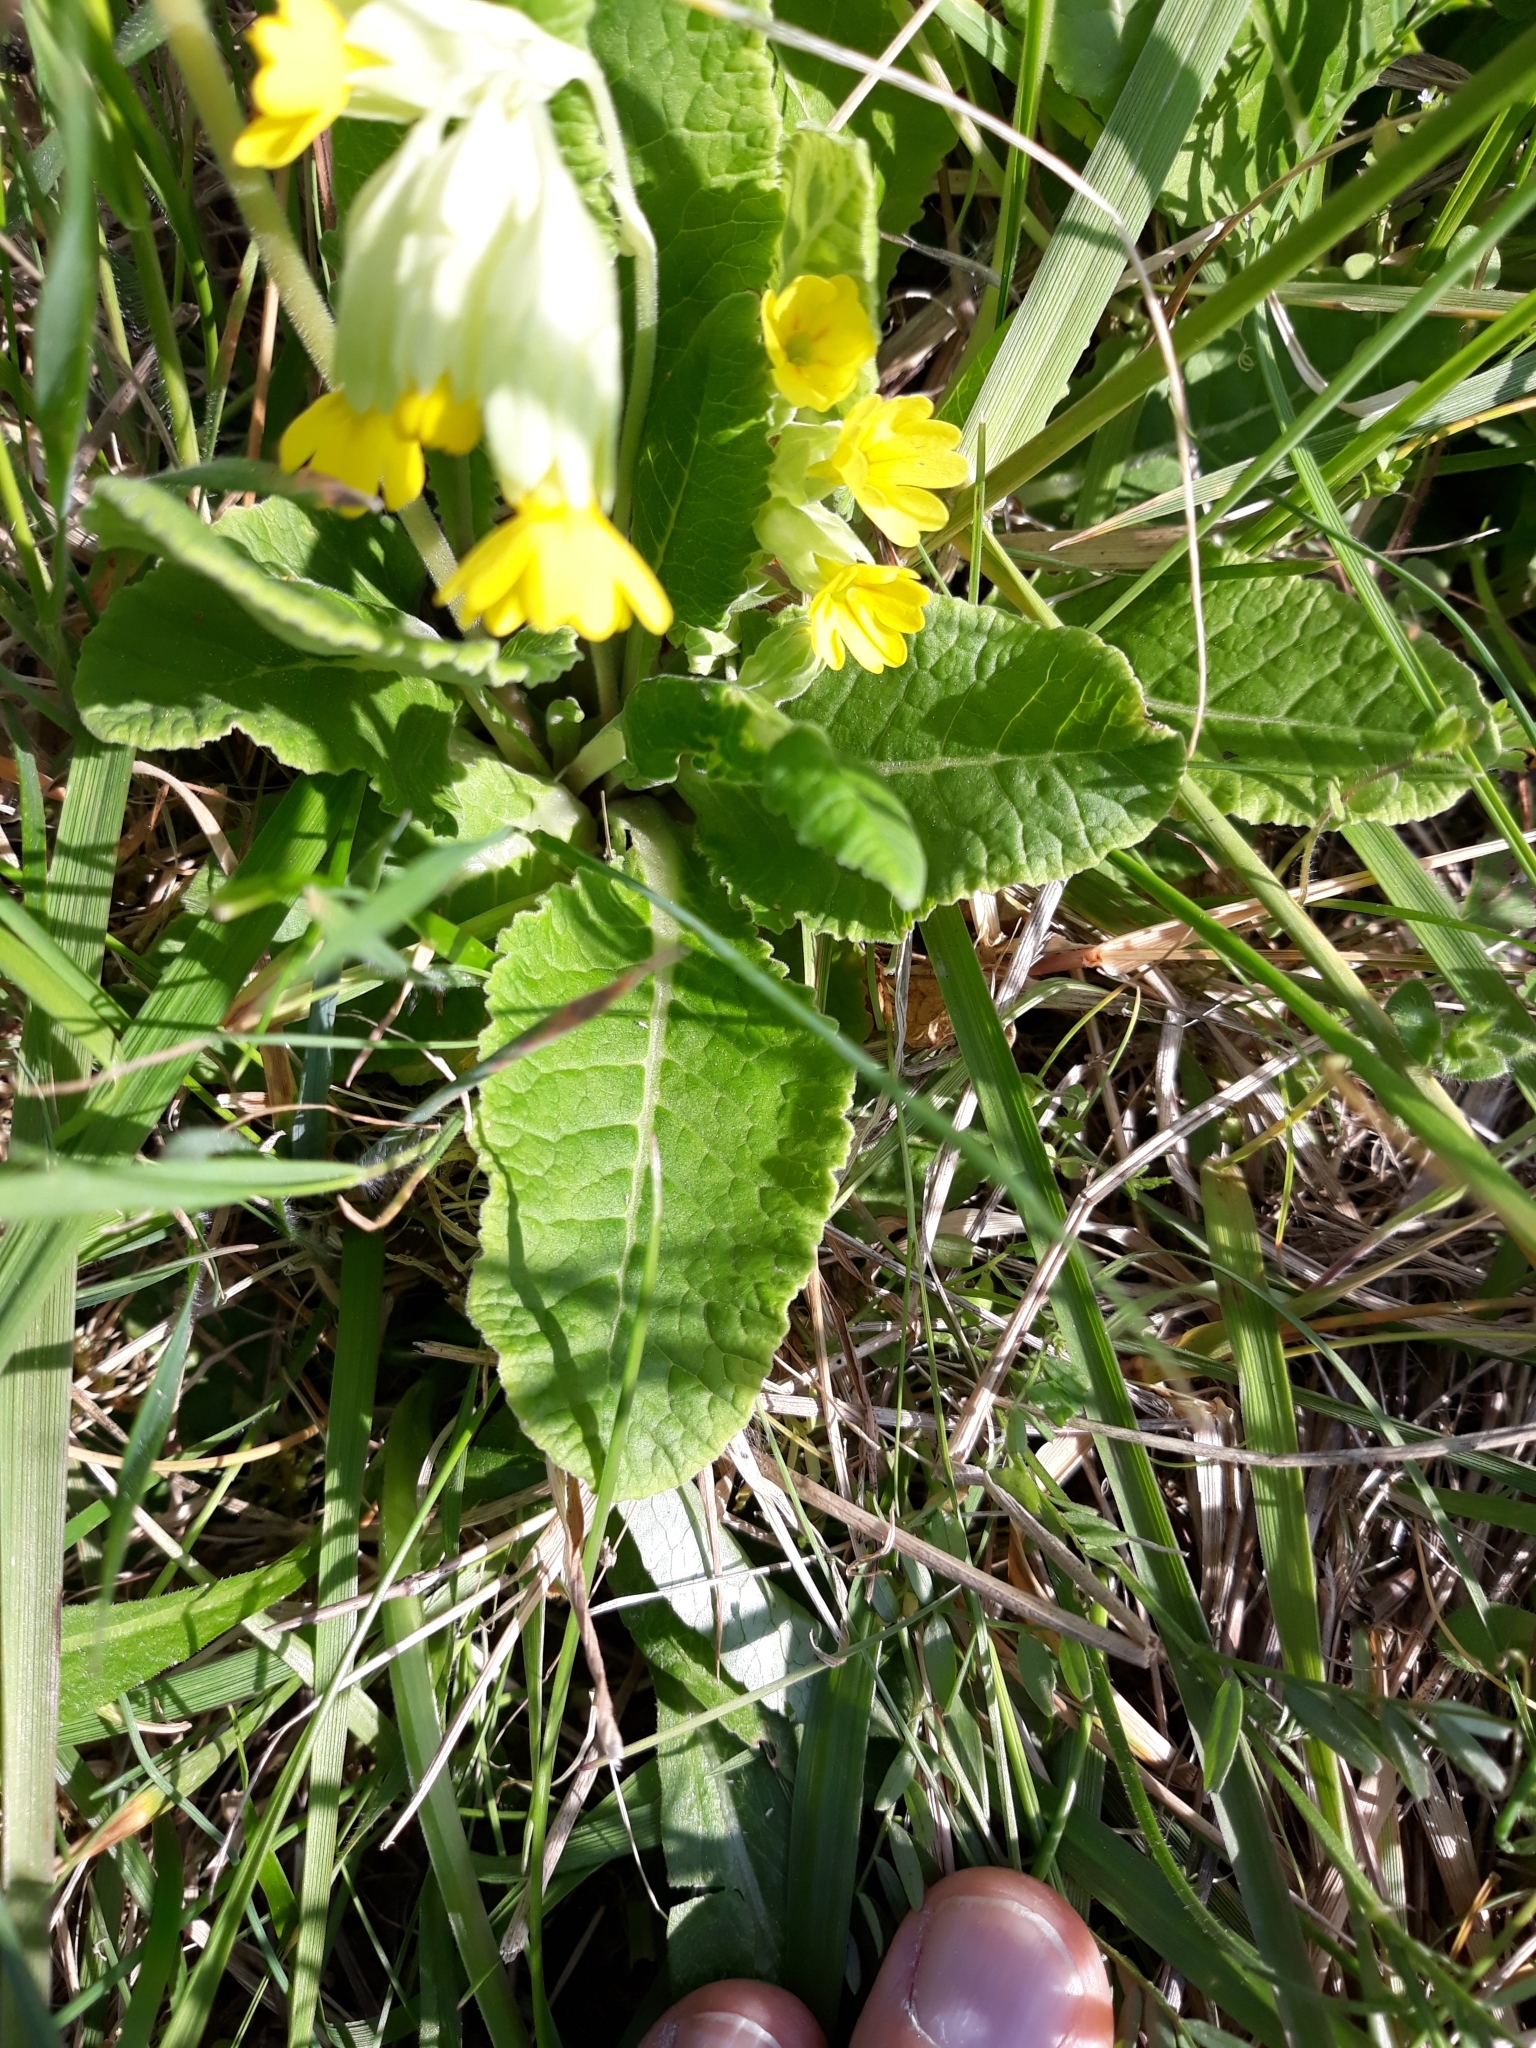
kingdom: Plantae
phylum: Tracheophyta
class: Magnoliopsida
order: Ericales
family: Primulaceae
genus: Primula
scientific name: Primula veris
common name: Cowslip
